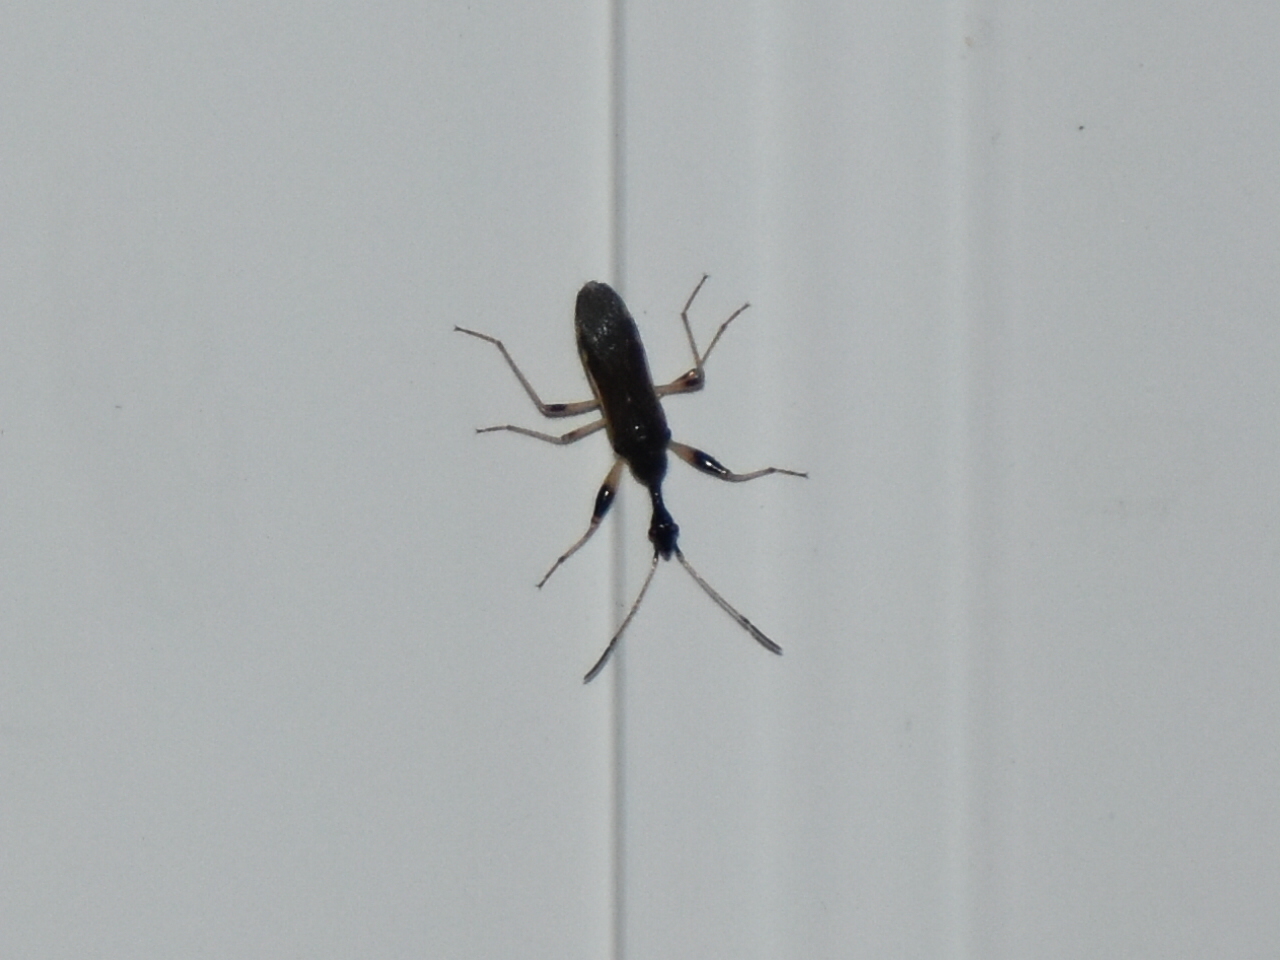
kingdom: Animalia
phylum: Arthropoda
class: Insecta
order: Hemiptera
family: Rhyparochromidae
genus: Myodocha
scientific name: Myodocha serripes
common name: Long-necked seed bug
